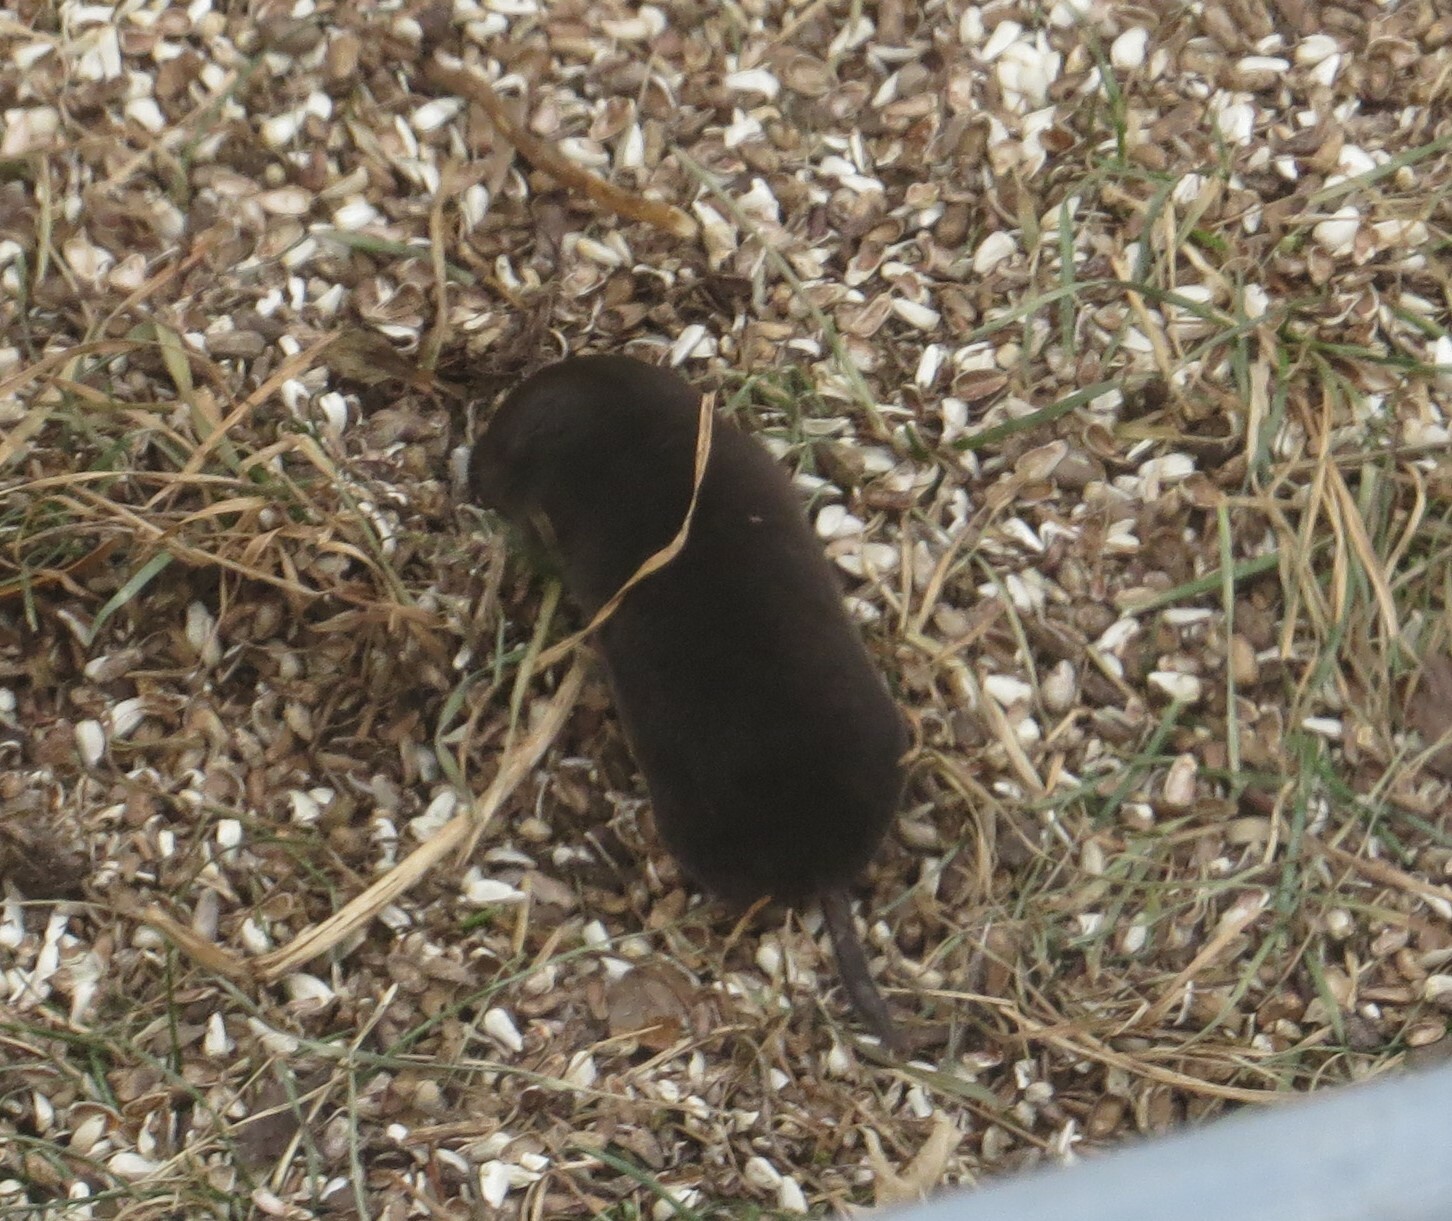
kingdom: Animalia
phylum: Chordata
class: Mammalia
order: Soricomorpha
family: Soricidae
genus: Blarina
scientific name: Blarina brevicauda
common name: Northern short-tailed shrew
